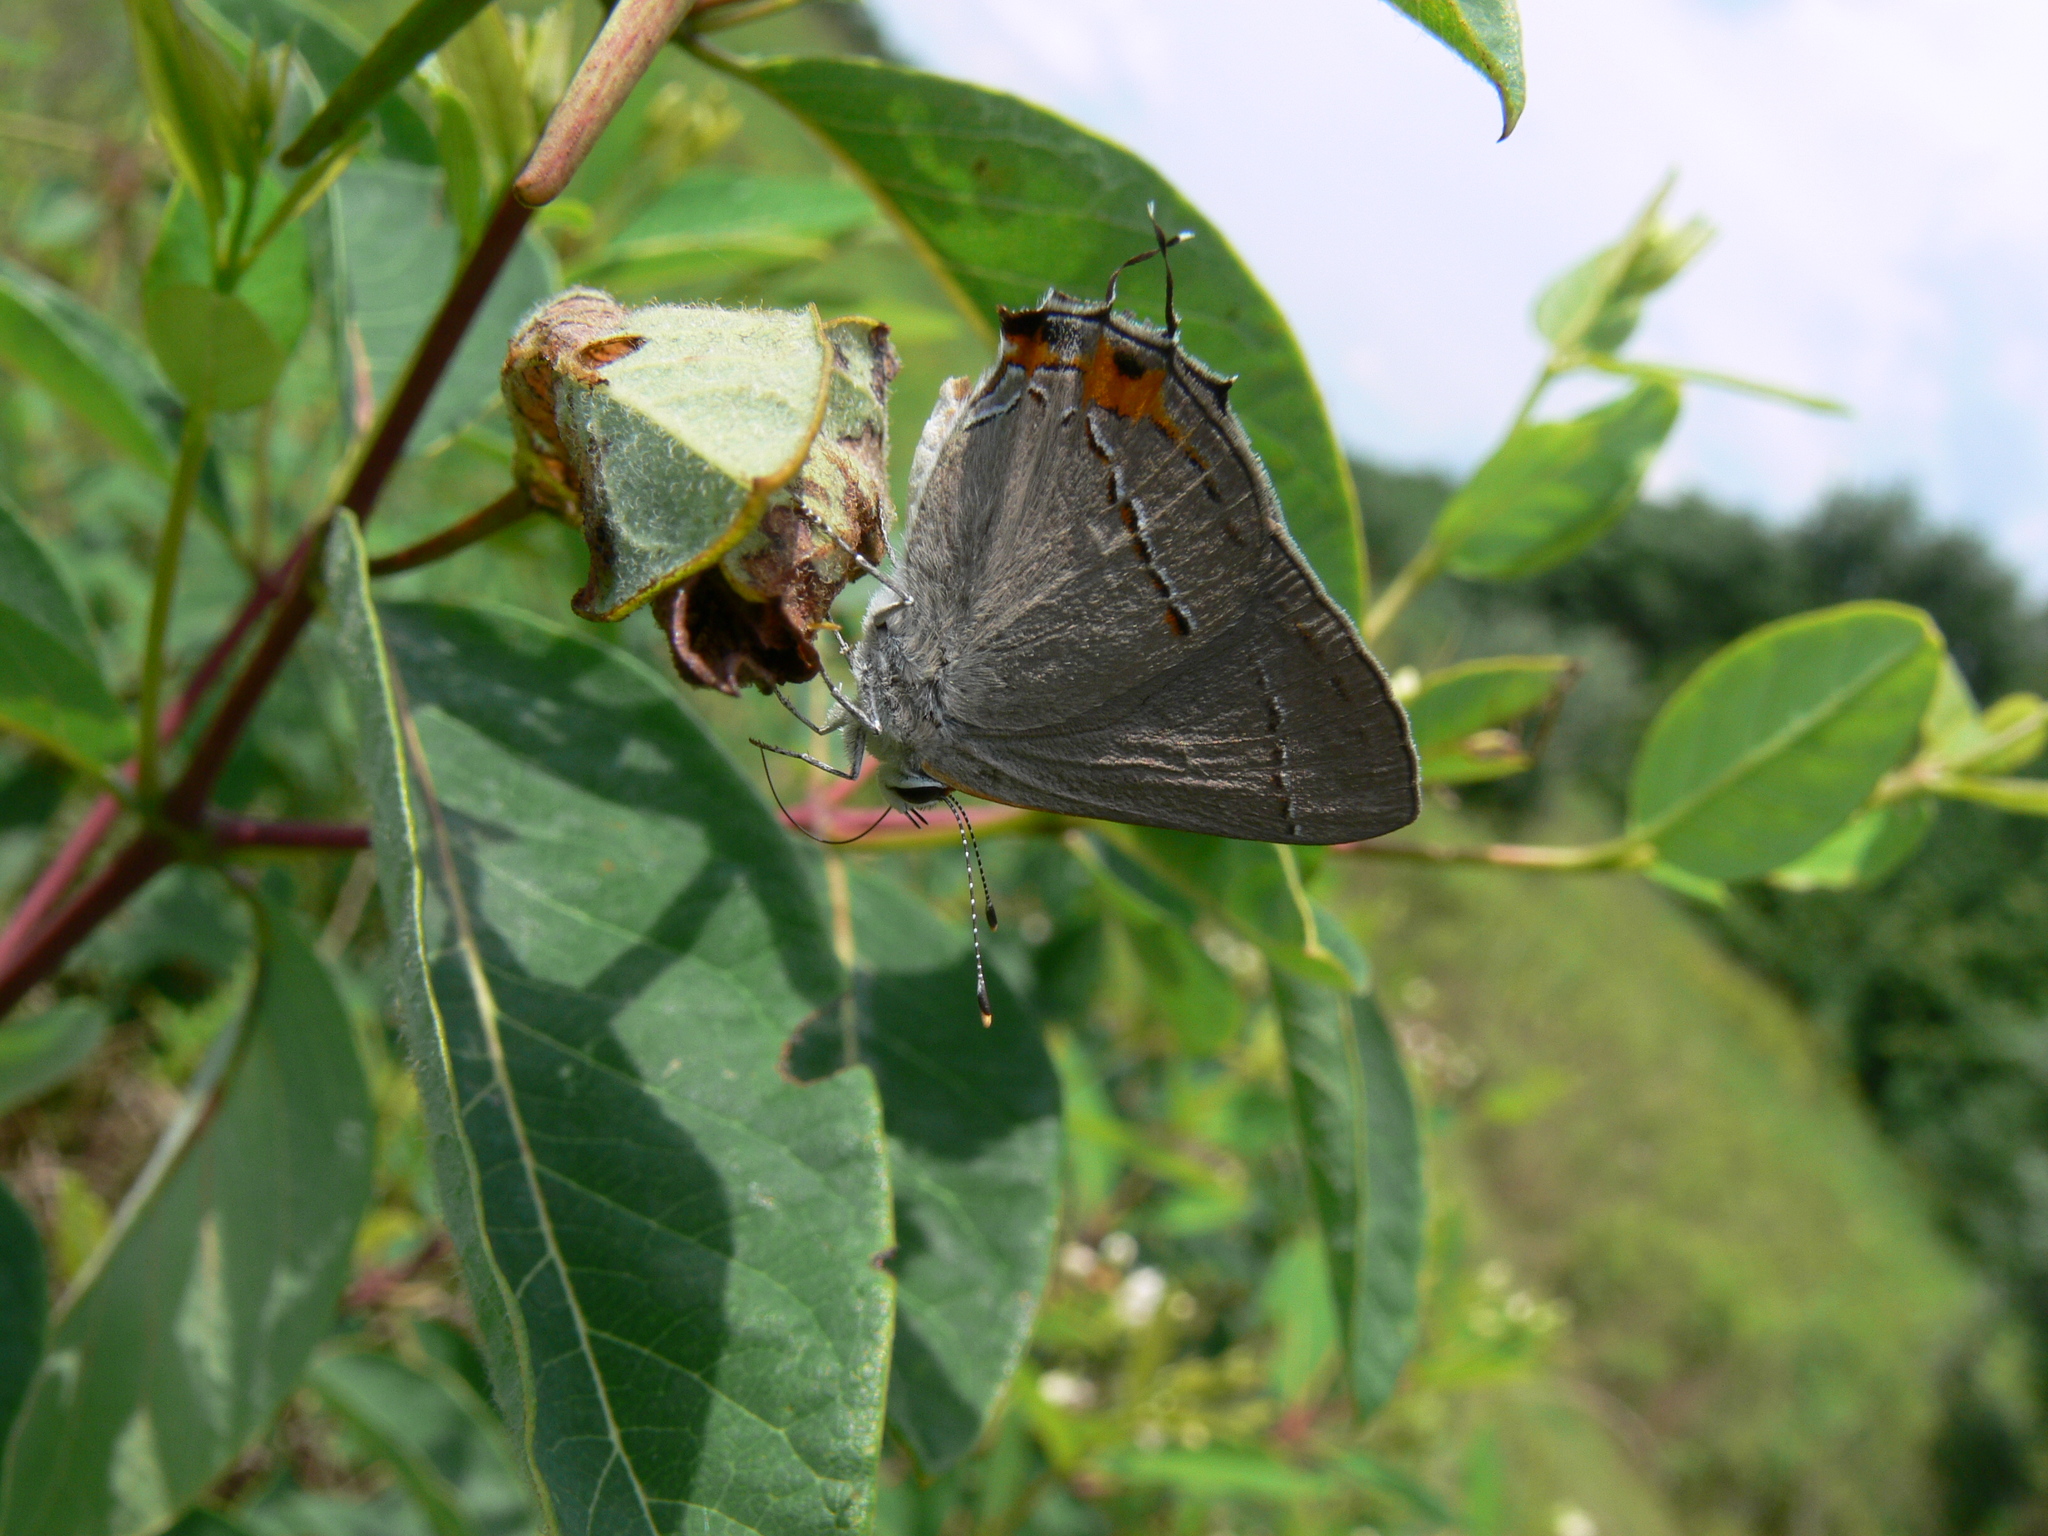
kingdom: Animalia
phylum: Arthropoda
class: Insecta
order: Lepidoptera
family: Lycaenidae
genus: Strymon
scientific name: Strymon melinus
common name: Gray hairstreak
